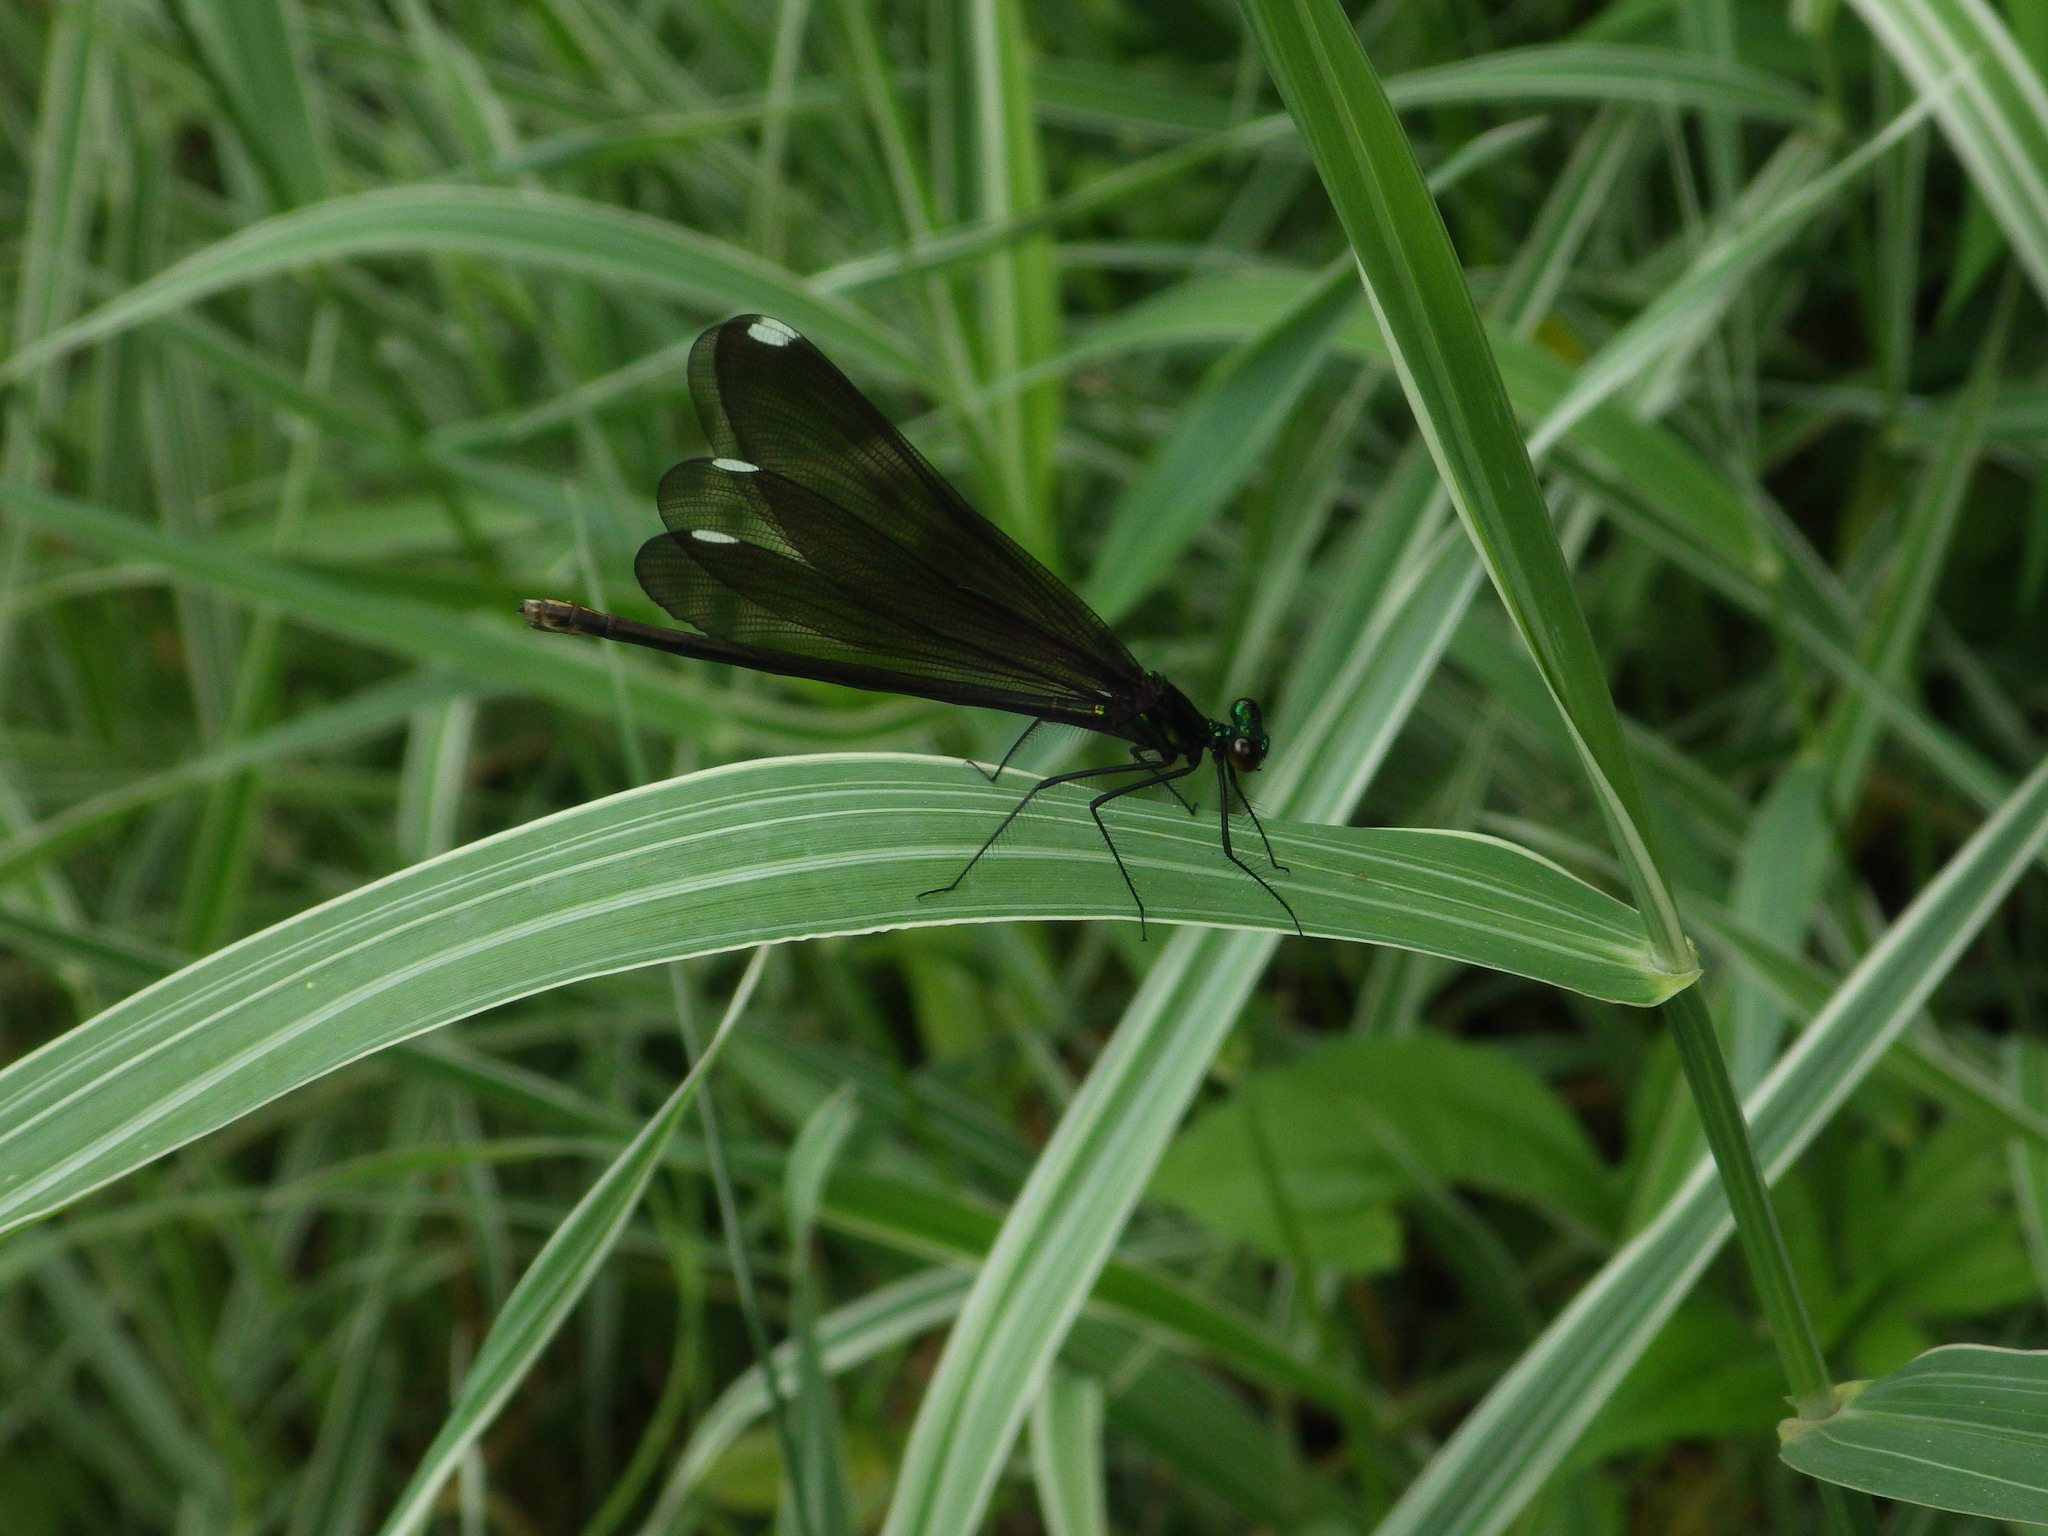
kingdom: Animalia
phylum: Arthropoda
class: Insecta
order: Odonata
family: Calopterygidae
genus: Calopteryx
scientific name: Calopteryx maculata
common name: Ebony jewelwing
